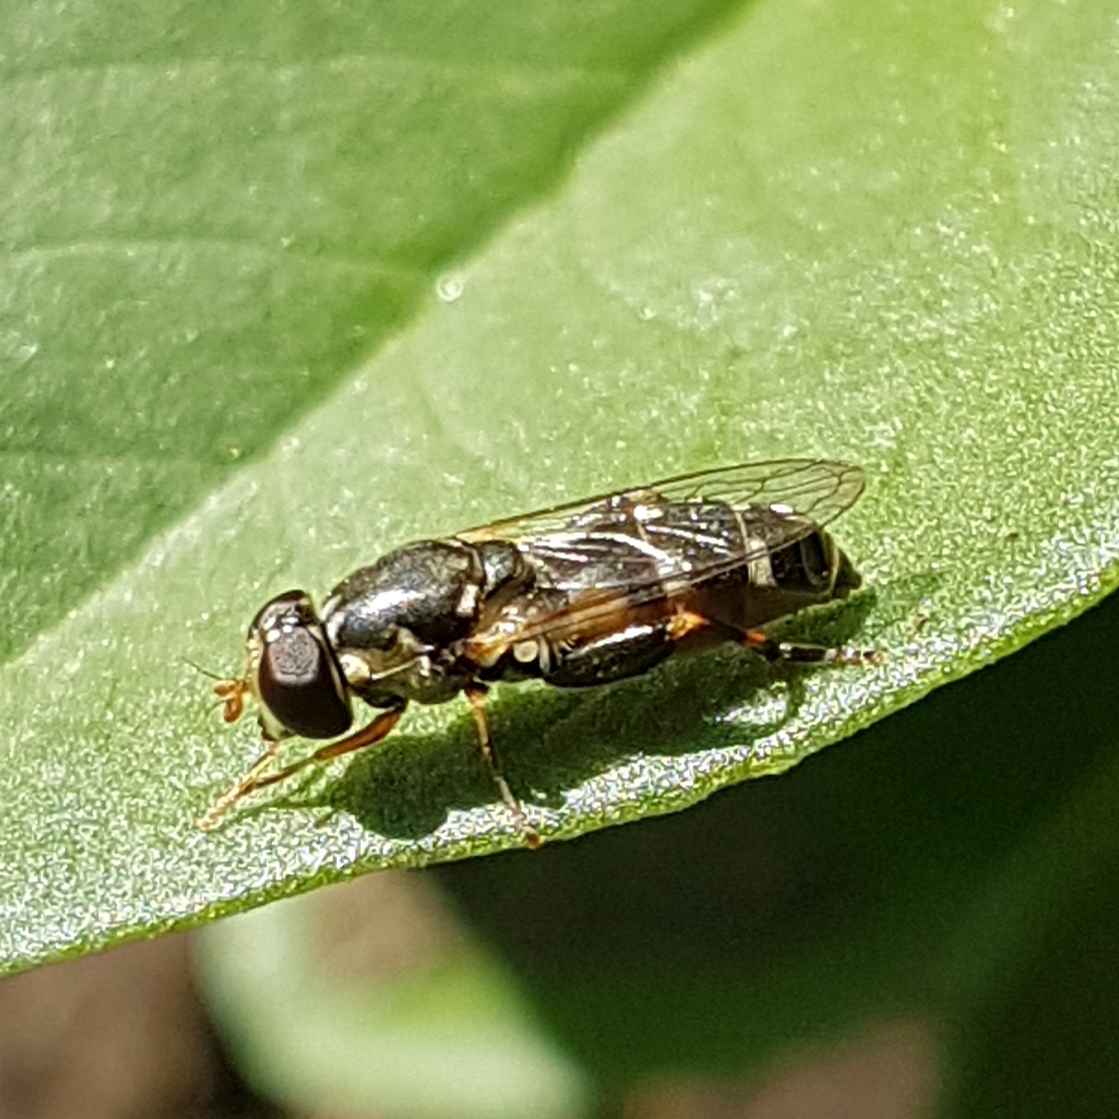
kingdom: Animalia
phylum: Arthropoda
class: Insecta
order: Diptera
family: Syrphidae
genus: Syritta
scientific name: Syritta pipiens
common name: Hover fly
